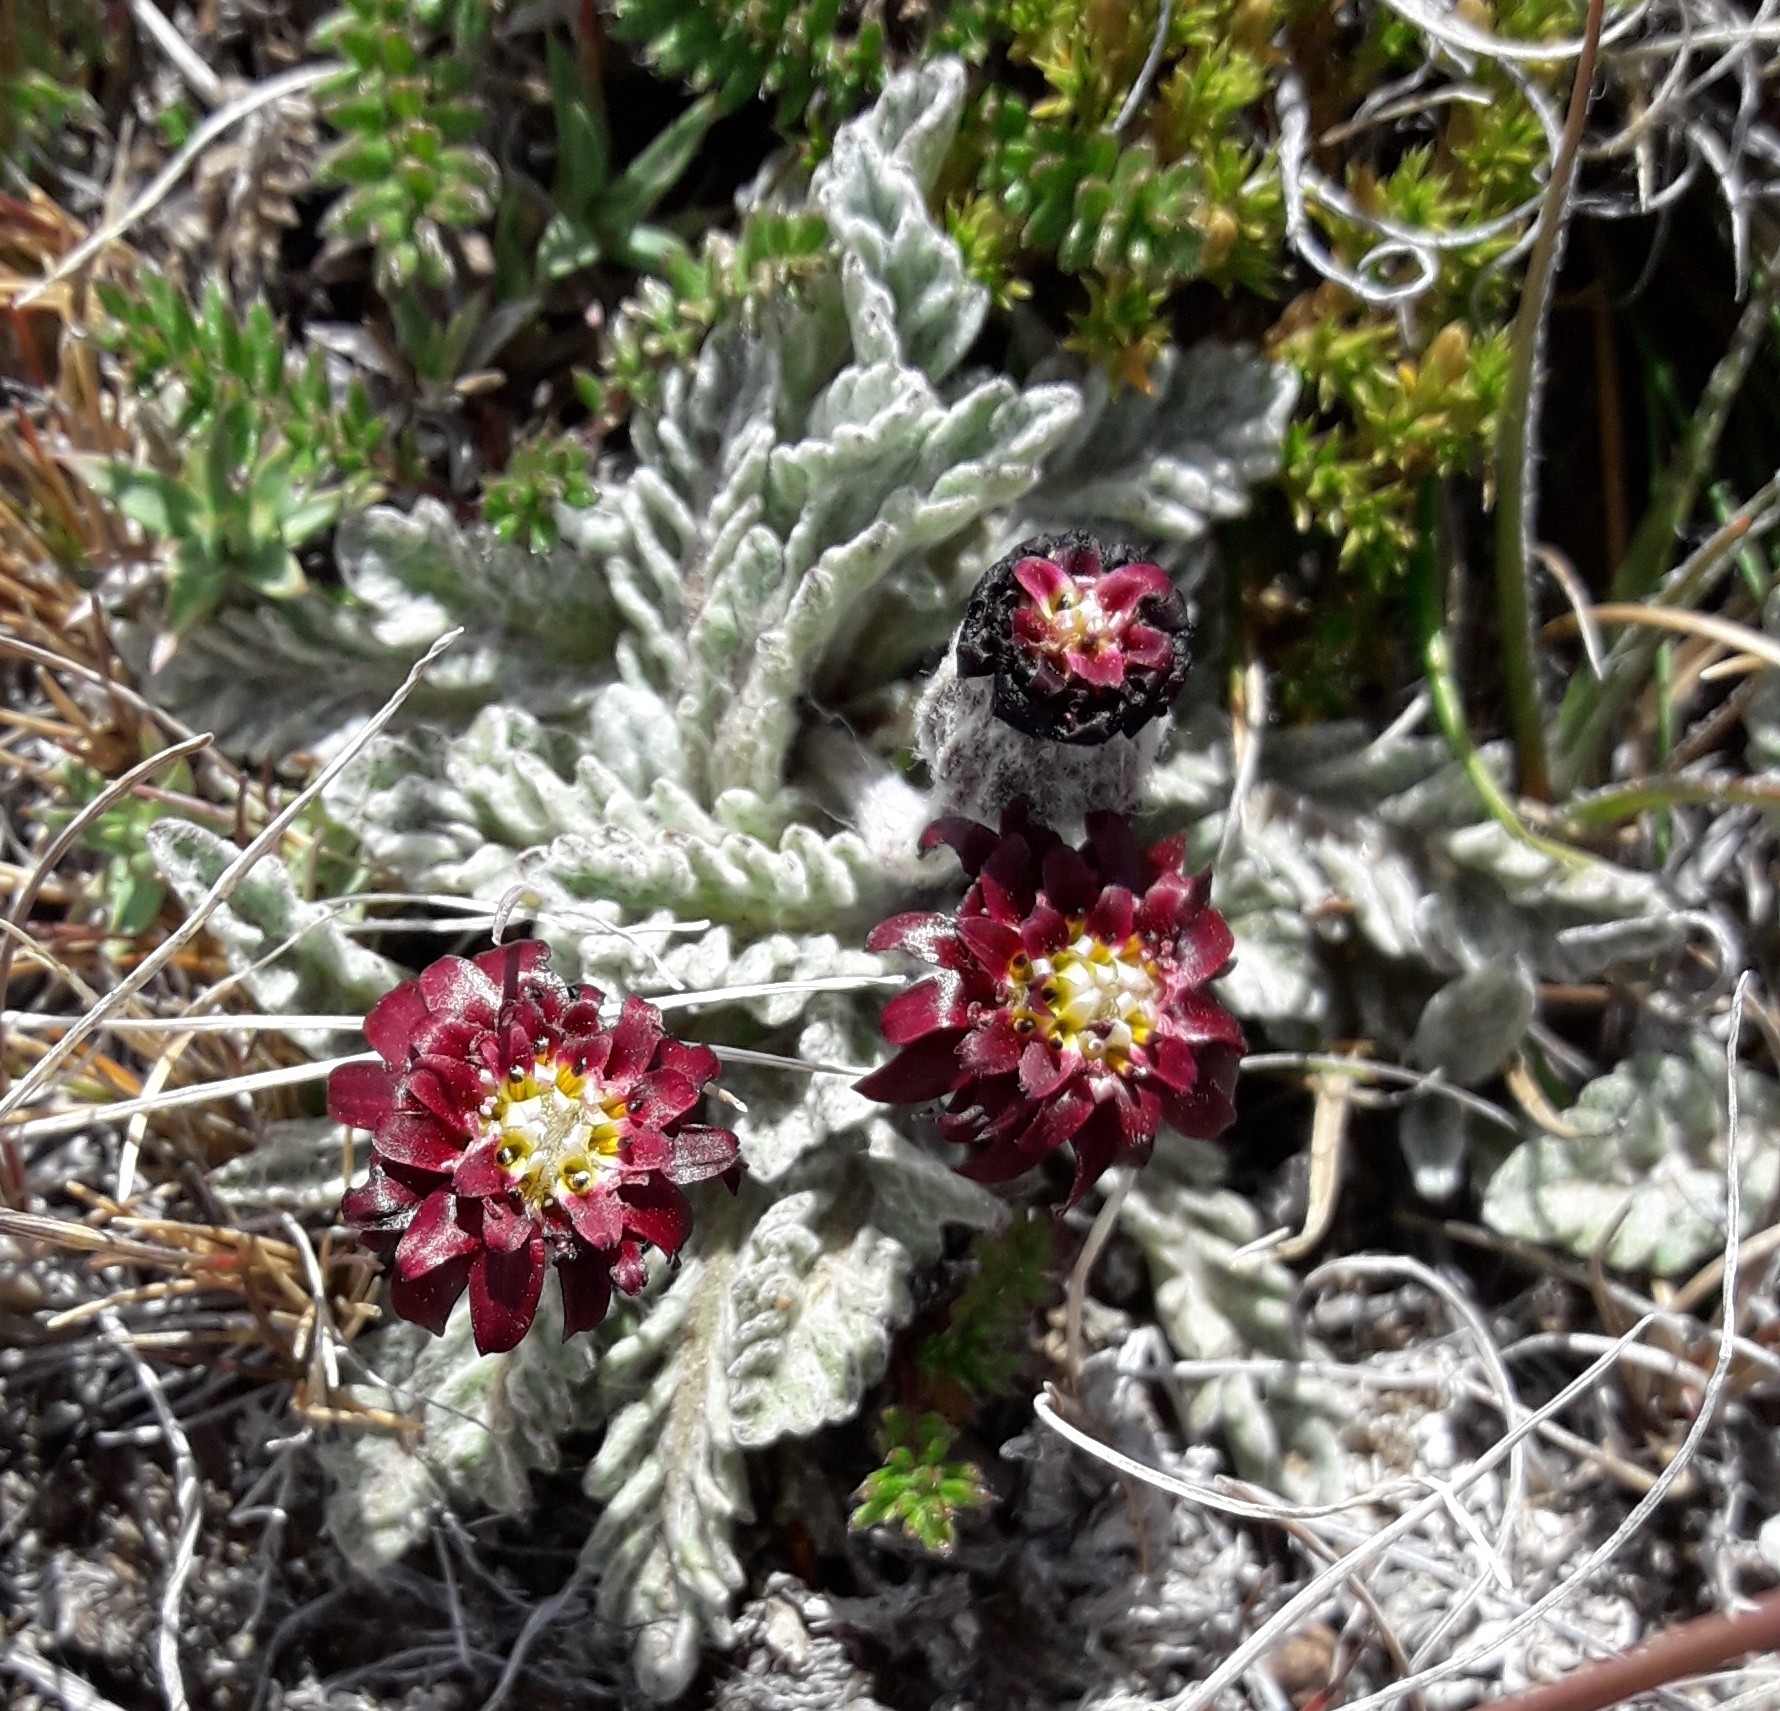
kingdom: Plantae
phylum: Tracheophyta
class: Magnoliopsida
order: Asterales
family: Asteraceae
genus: Leucheria
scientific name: Leucheria purpurea
